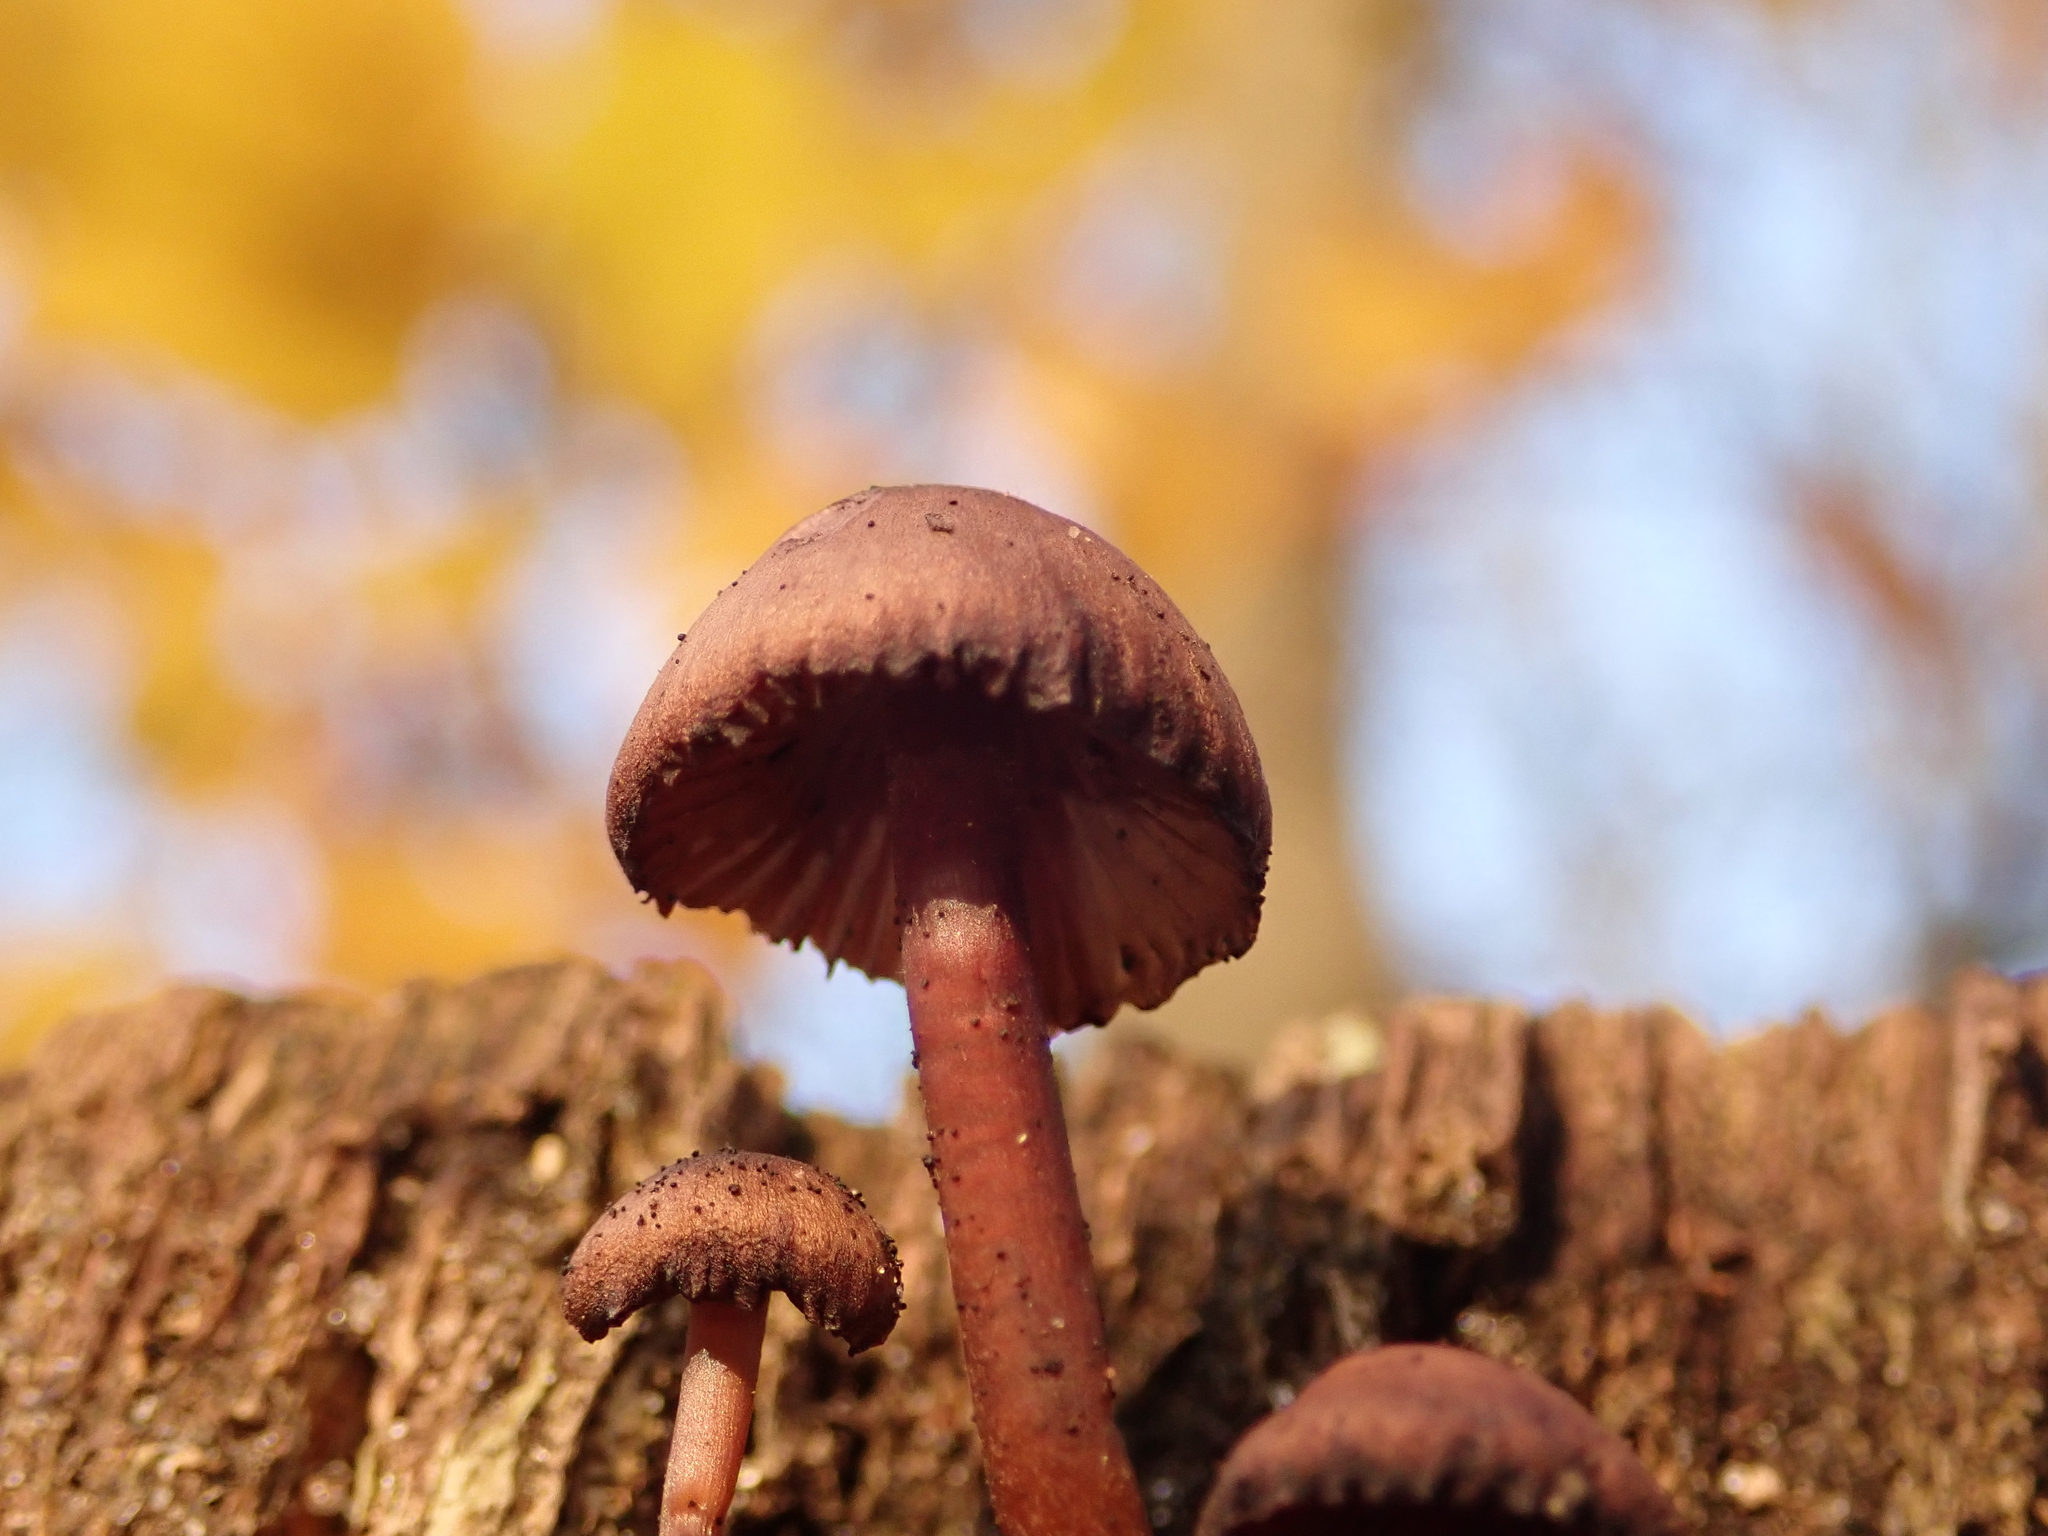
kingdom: Fungi
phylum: Basidiomycota
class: Agaricomycetes
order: Agaricales
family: Mycenaceae
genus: Mycena
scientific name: Mycena haematopus
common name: Burgundydrop bonnet
